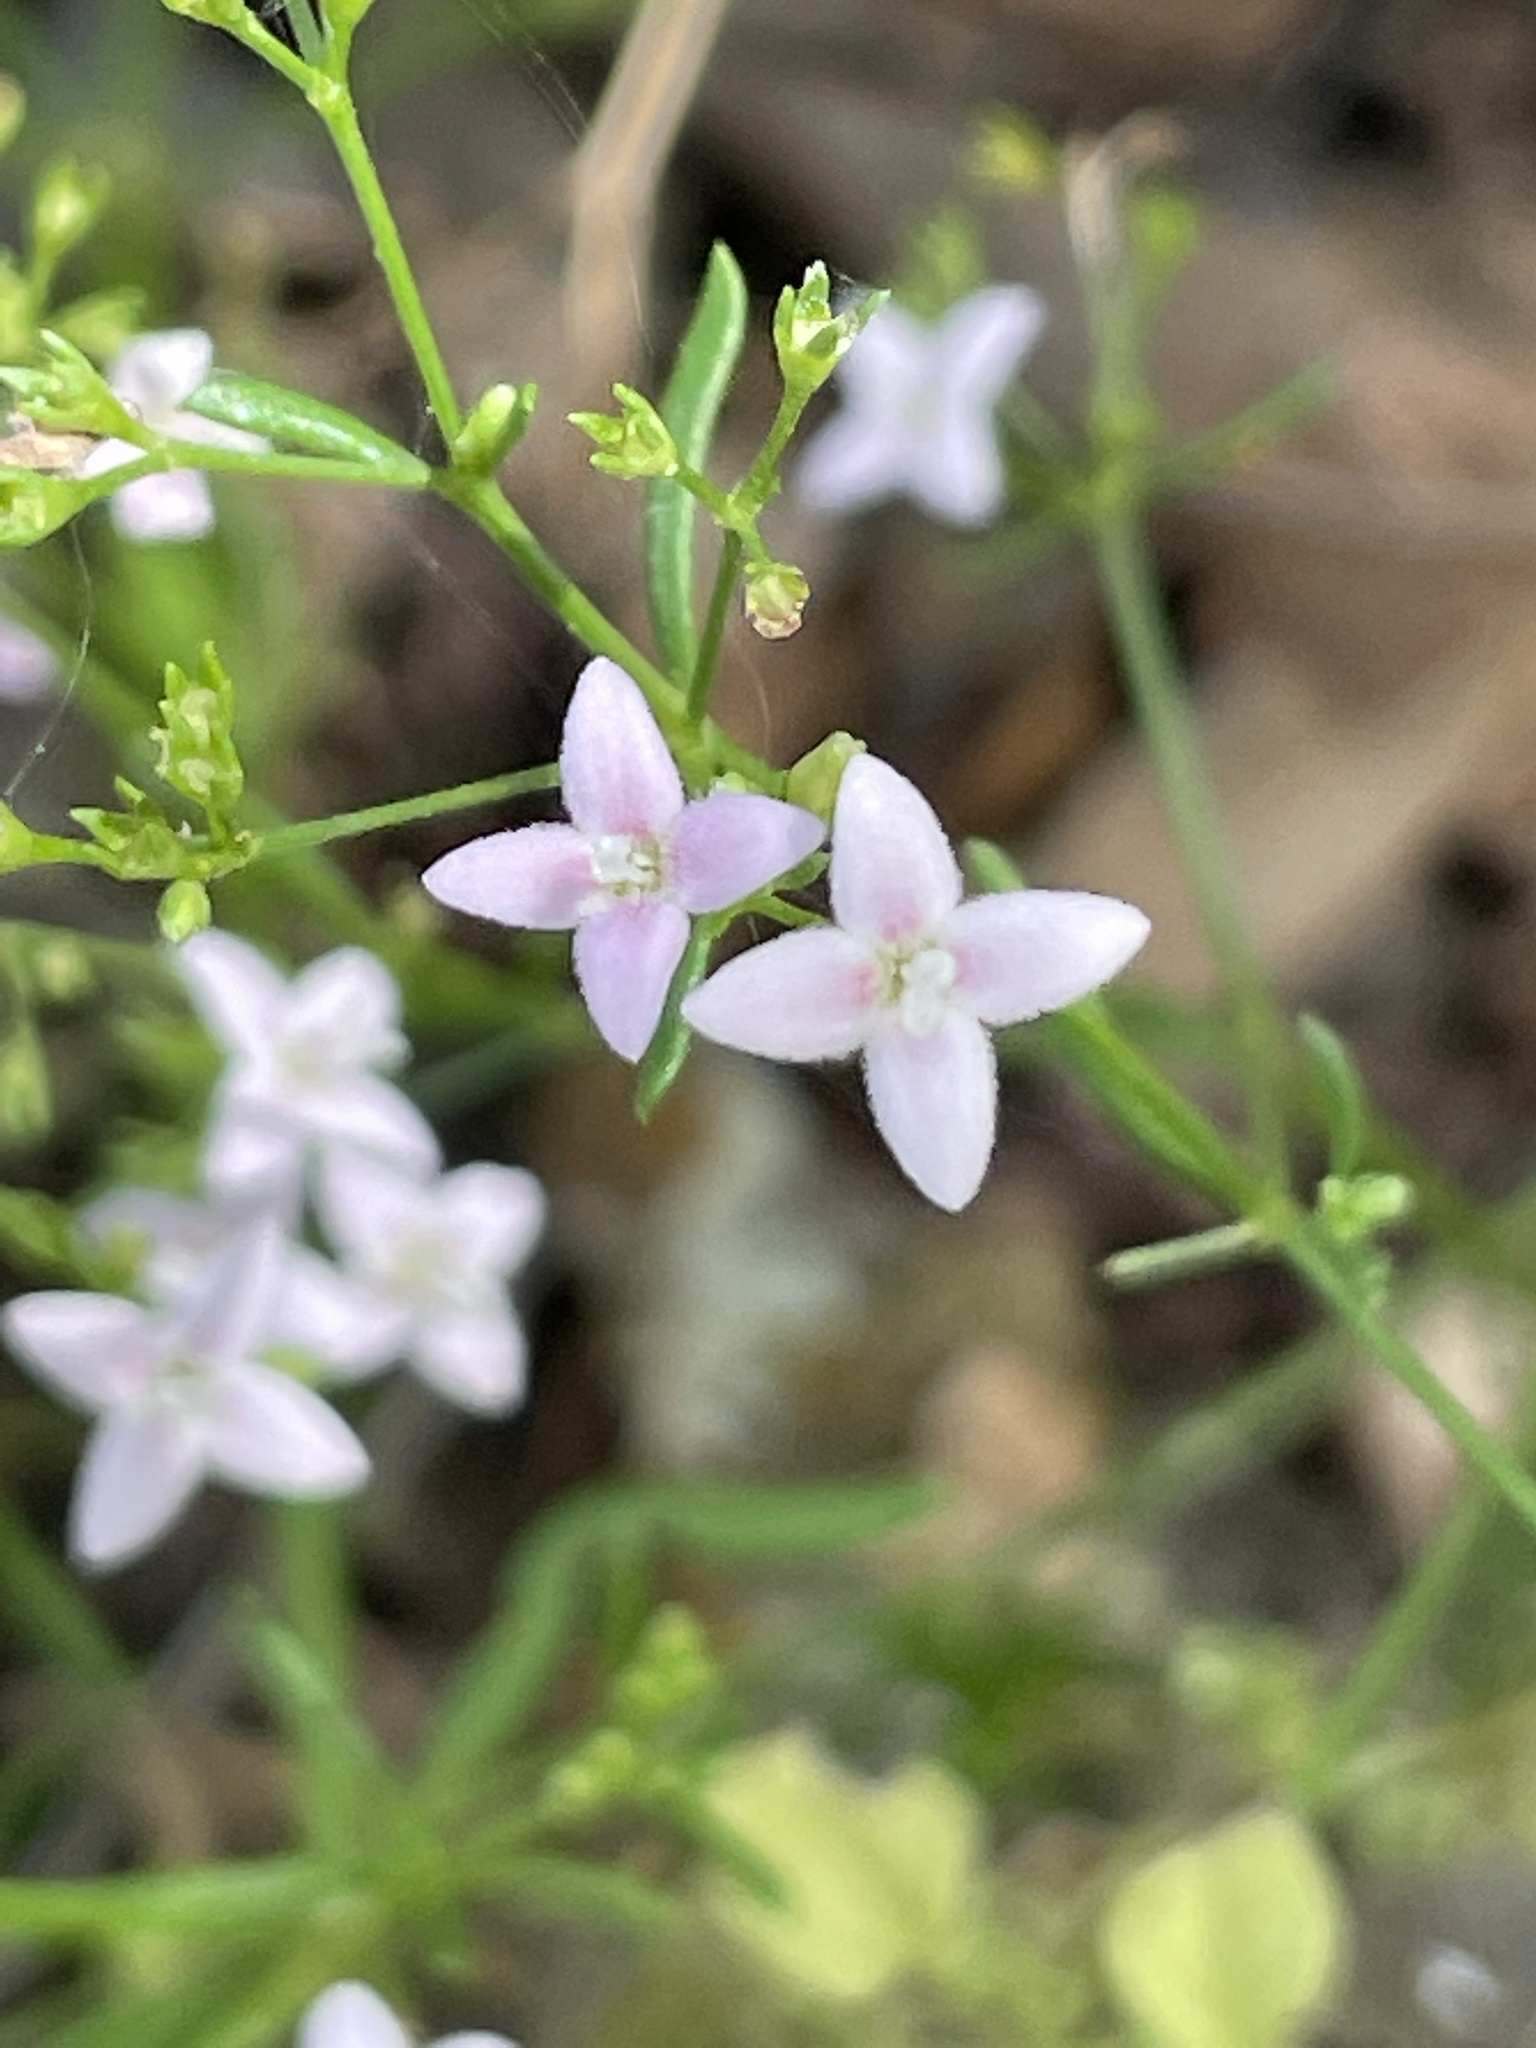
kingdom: Plantae
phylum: Tracheophyta
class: Magnoliopsida
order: Gentianales
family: Rubiaceae
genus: Stenaria
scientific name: Stenaria nigricans
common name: Diamondflowers
